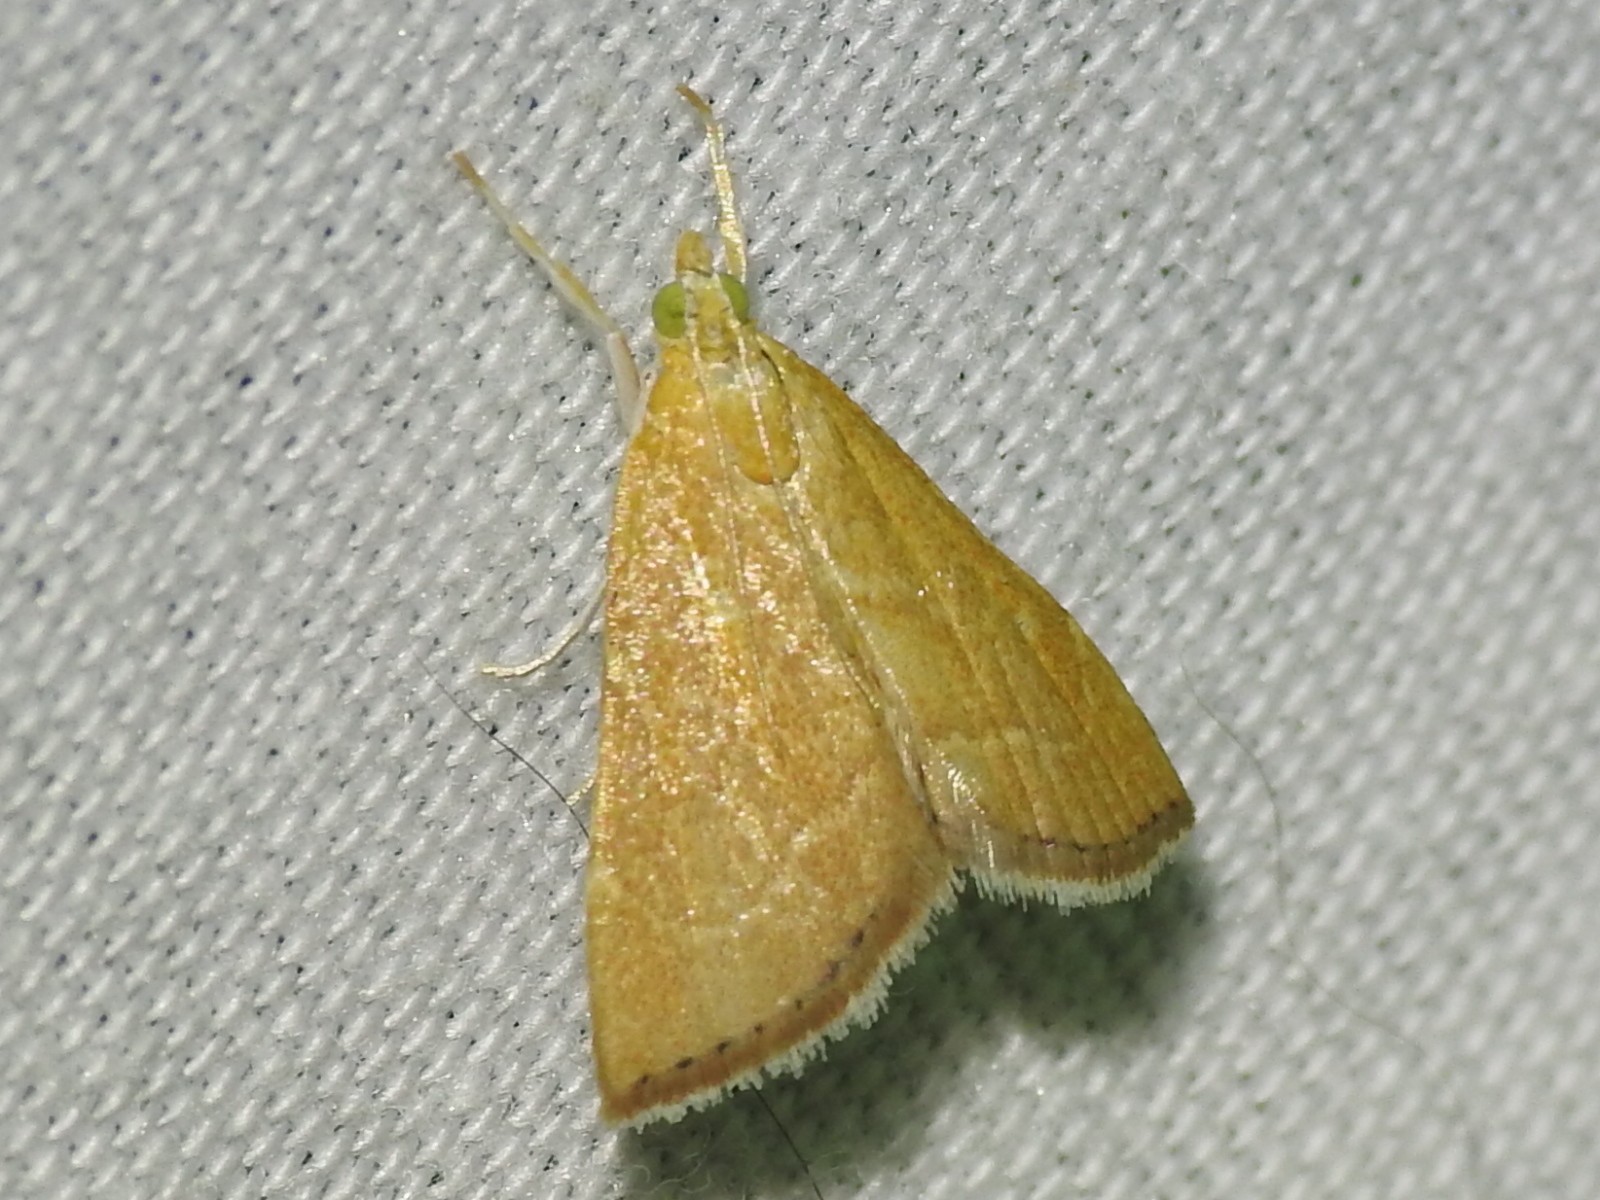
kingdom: Animalia
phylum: Arthropoda
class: Insecta
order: Lepidoptera
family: Crambidae
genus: Glaphyria
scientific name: Glaphyria invisalis
